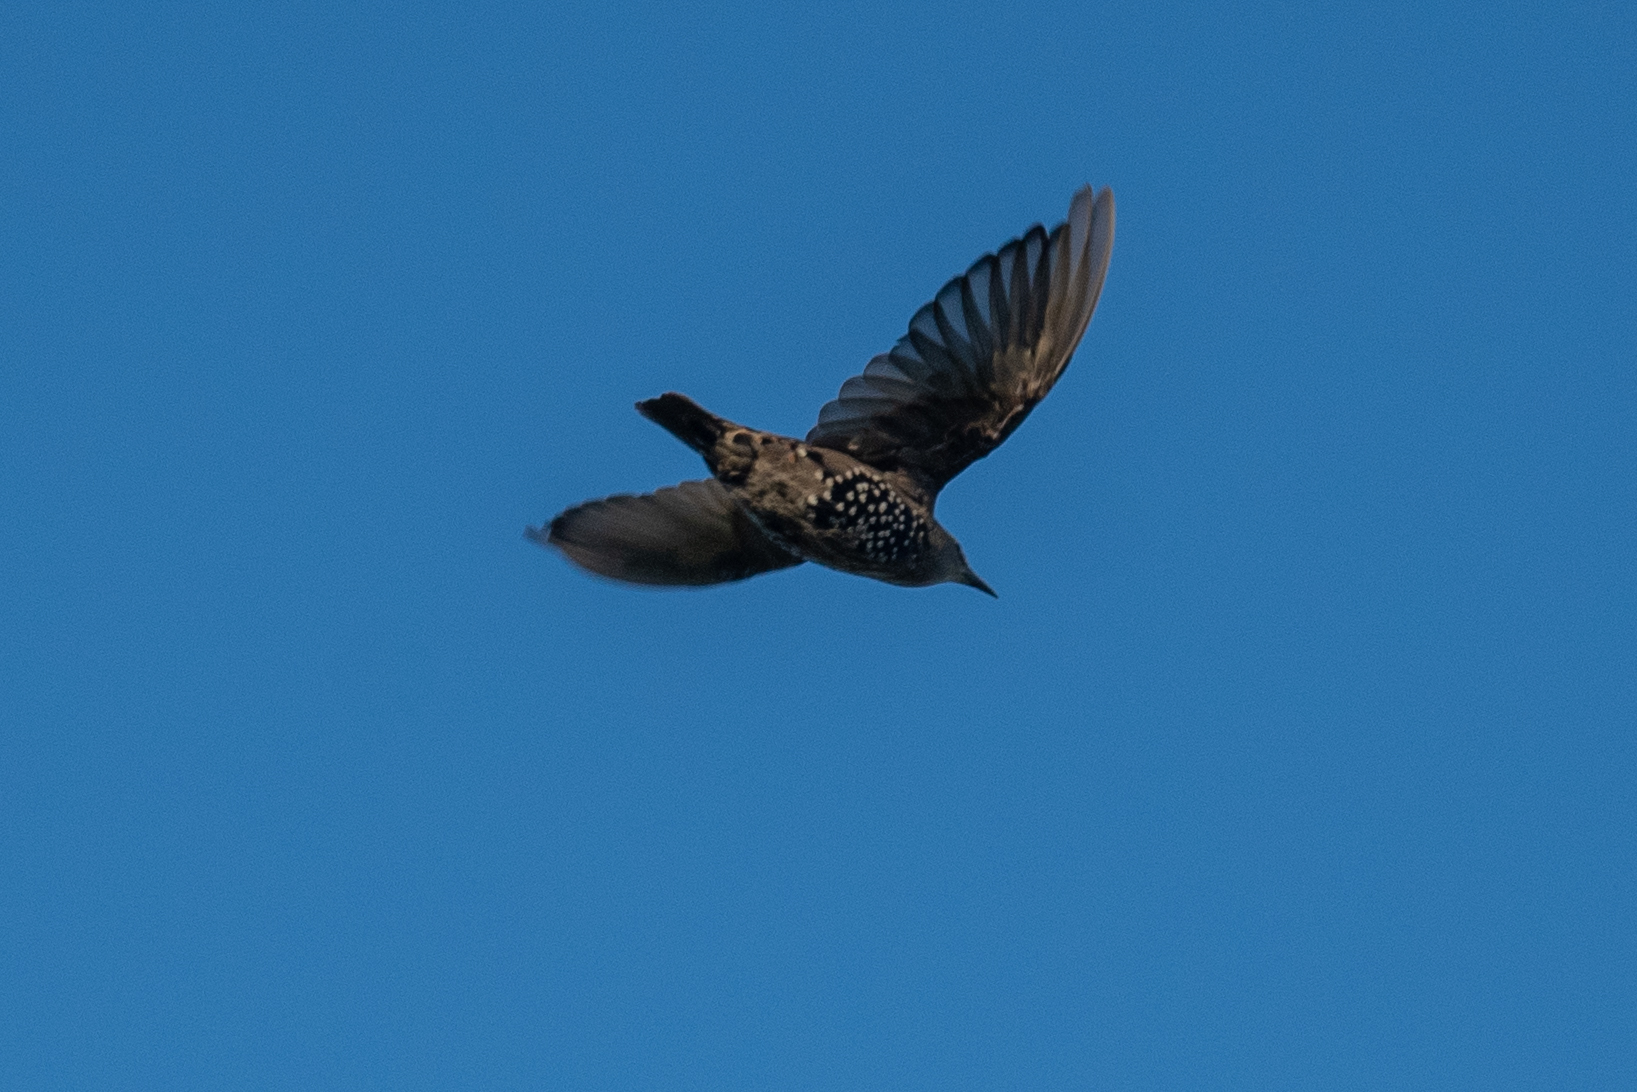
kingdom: Animalia
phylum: Chordata
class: Aves
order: Passeriformes
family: Sturnidae
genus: Sturnus
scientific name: Sturnus vulgaris
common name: Common starling
